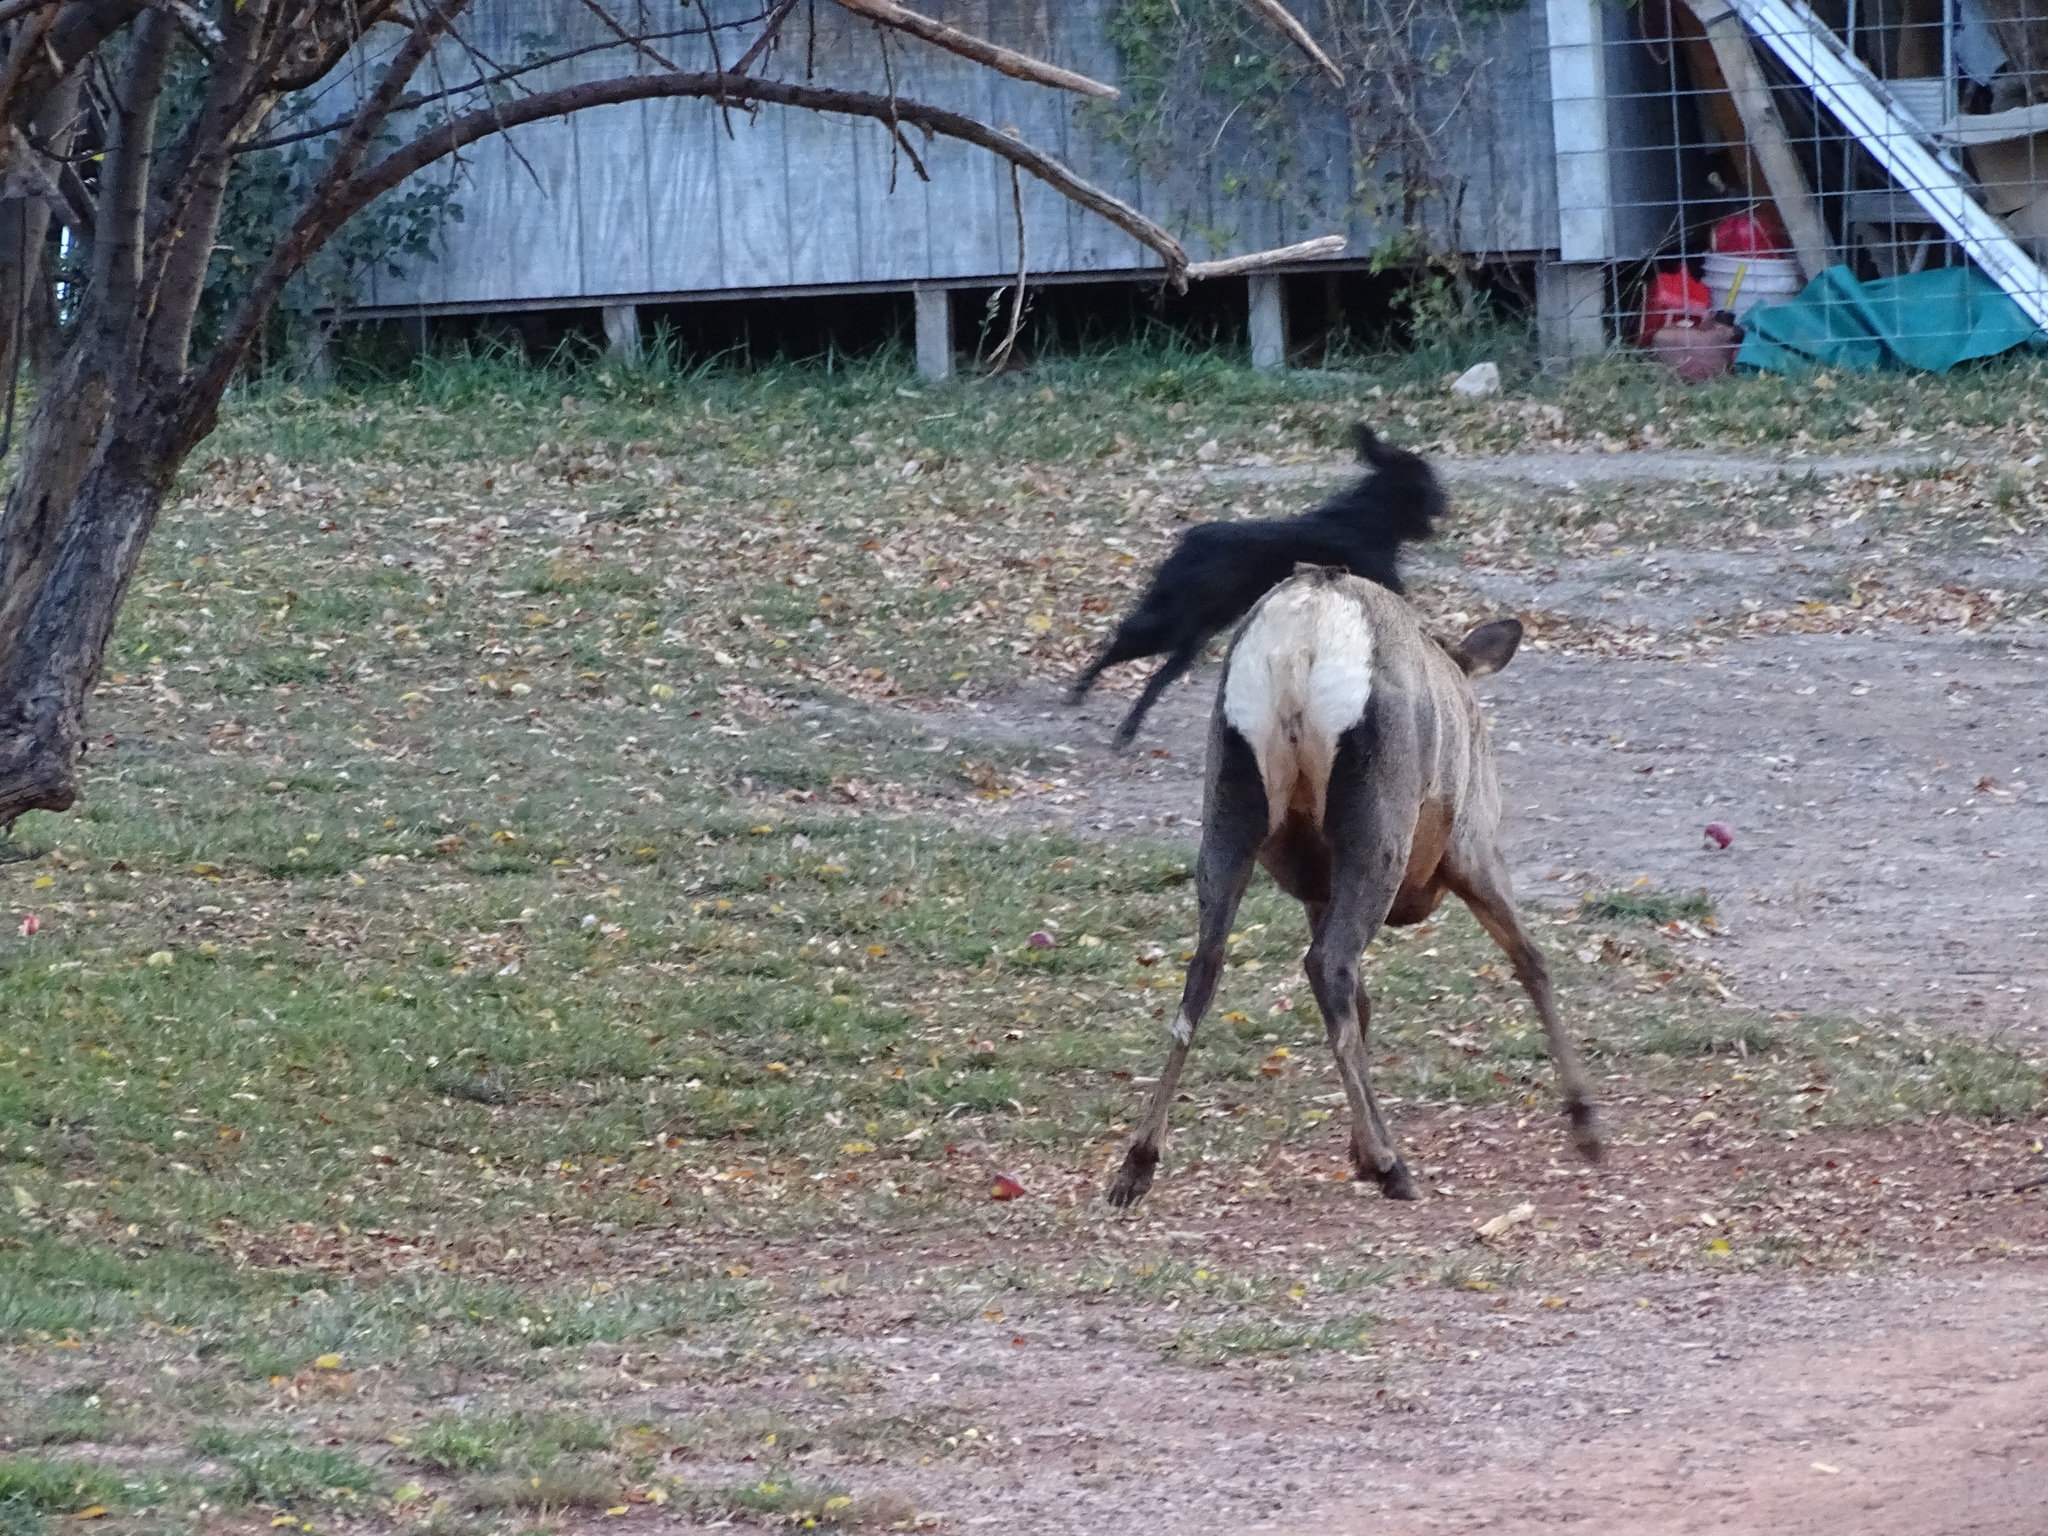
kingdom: Animalia
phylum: Chordata
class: Mammalia
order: Artiodactyla
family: Cervidae
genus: Cervus
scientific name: Cervus elaphus
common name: Red deer
